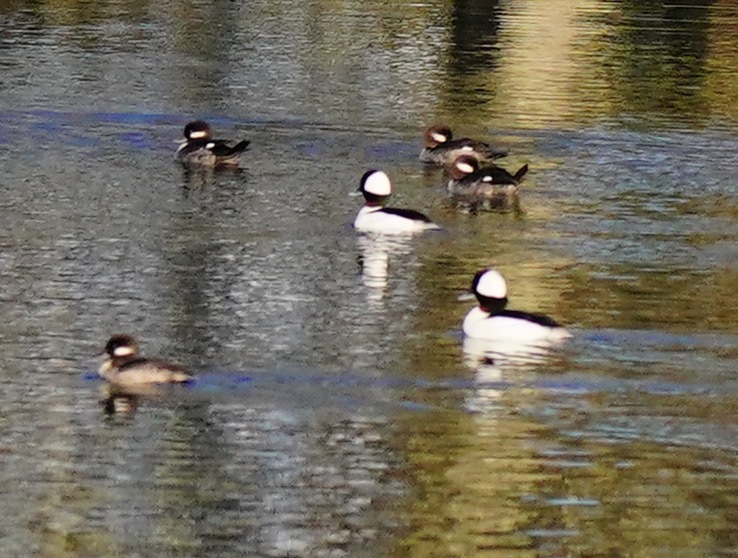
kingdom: Animalia
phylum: Chordata
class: Aves
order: Anseriformes
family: Anatidae
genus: Bucephala
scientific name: Bucephala albeola
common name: Bufflehead
